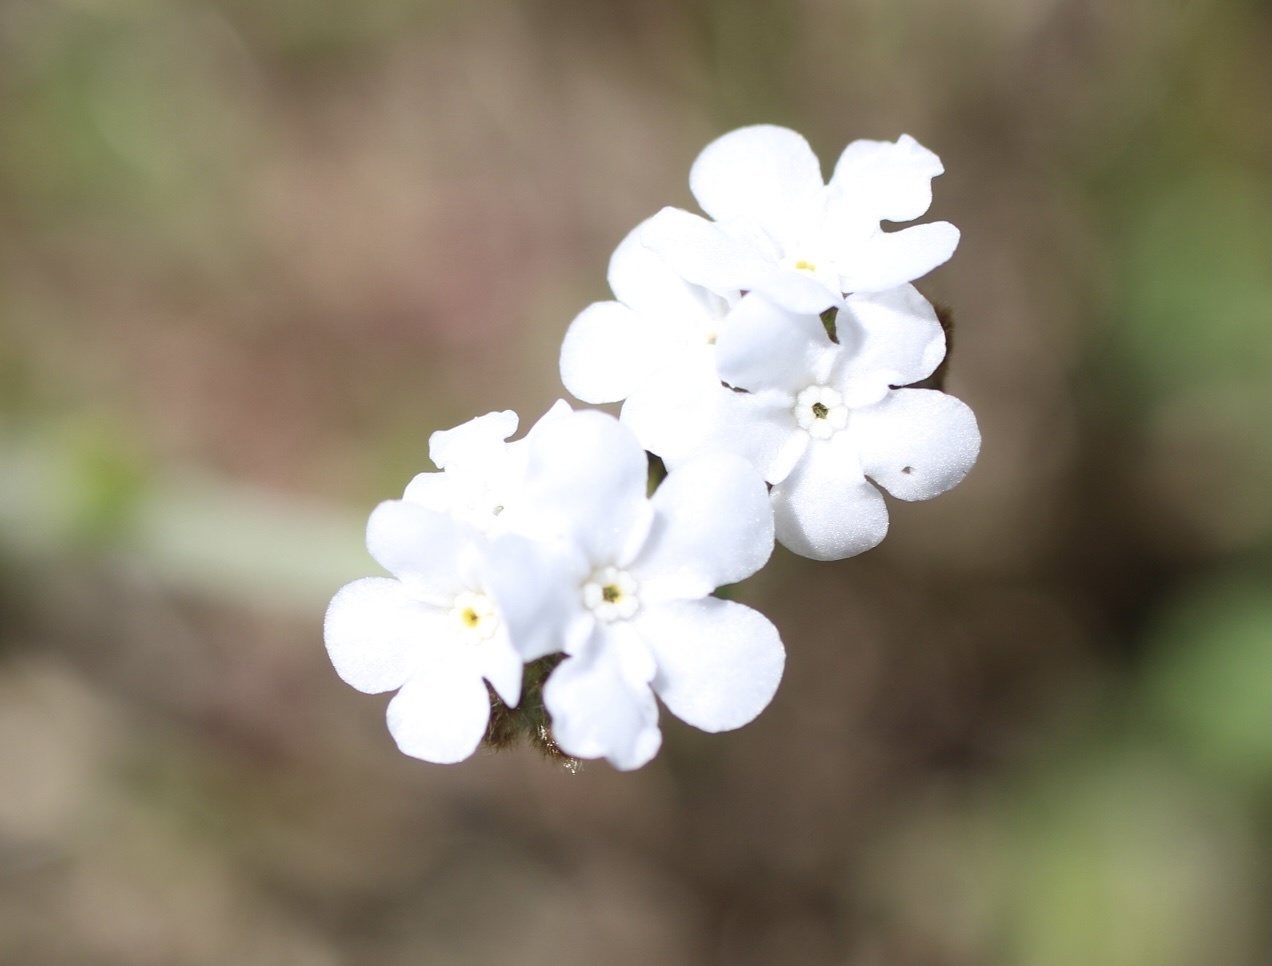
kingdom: Plantae
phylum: Tracheophyta
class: Magnoliopsida
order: Boraginales
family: Boraginaceae
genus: Plagiobothrys
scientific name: Plagiobothrys nothofulvus
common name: Popcorn-flower
